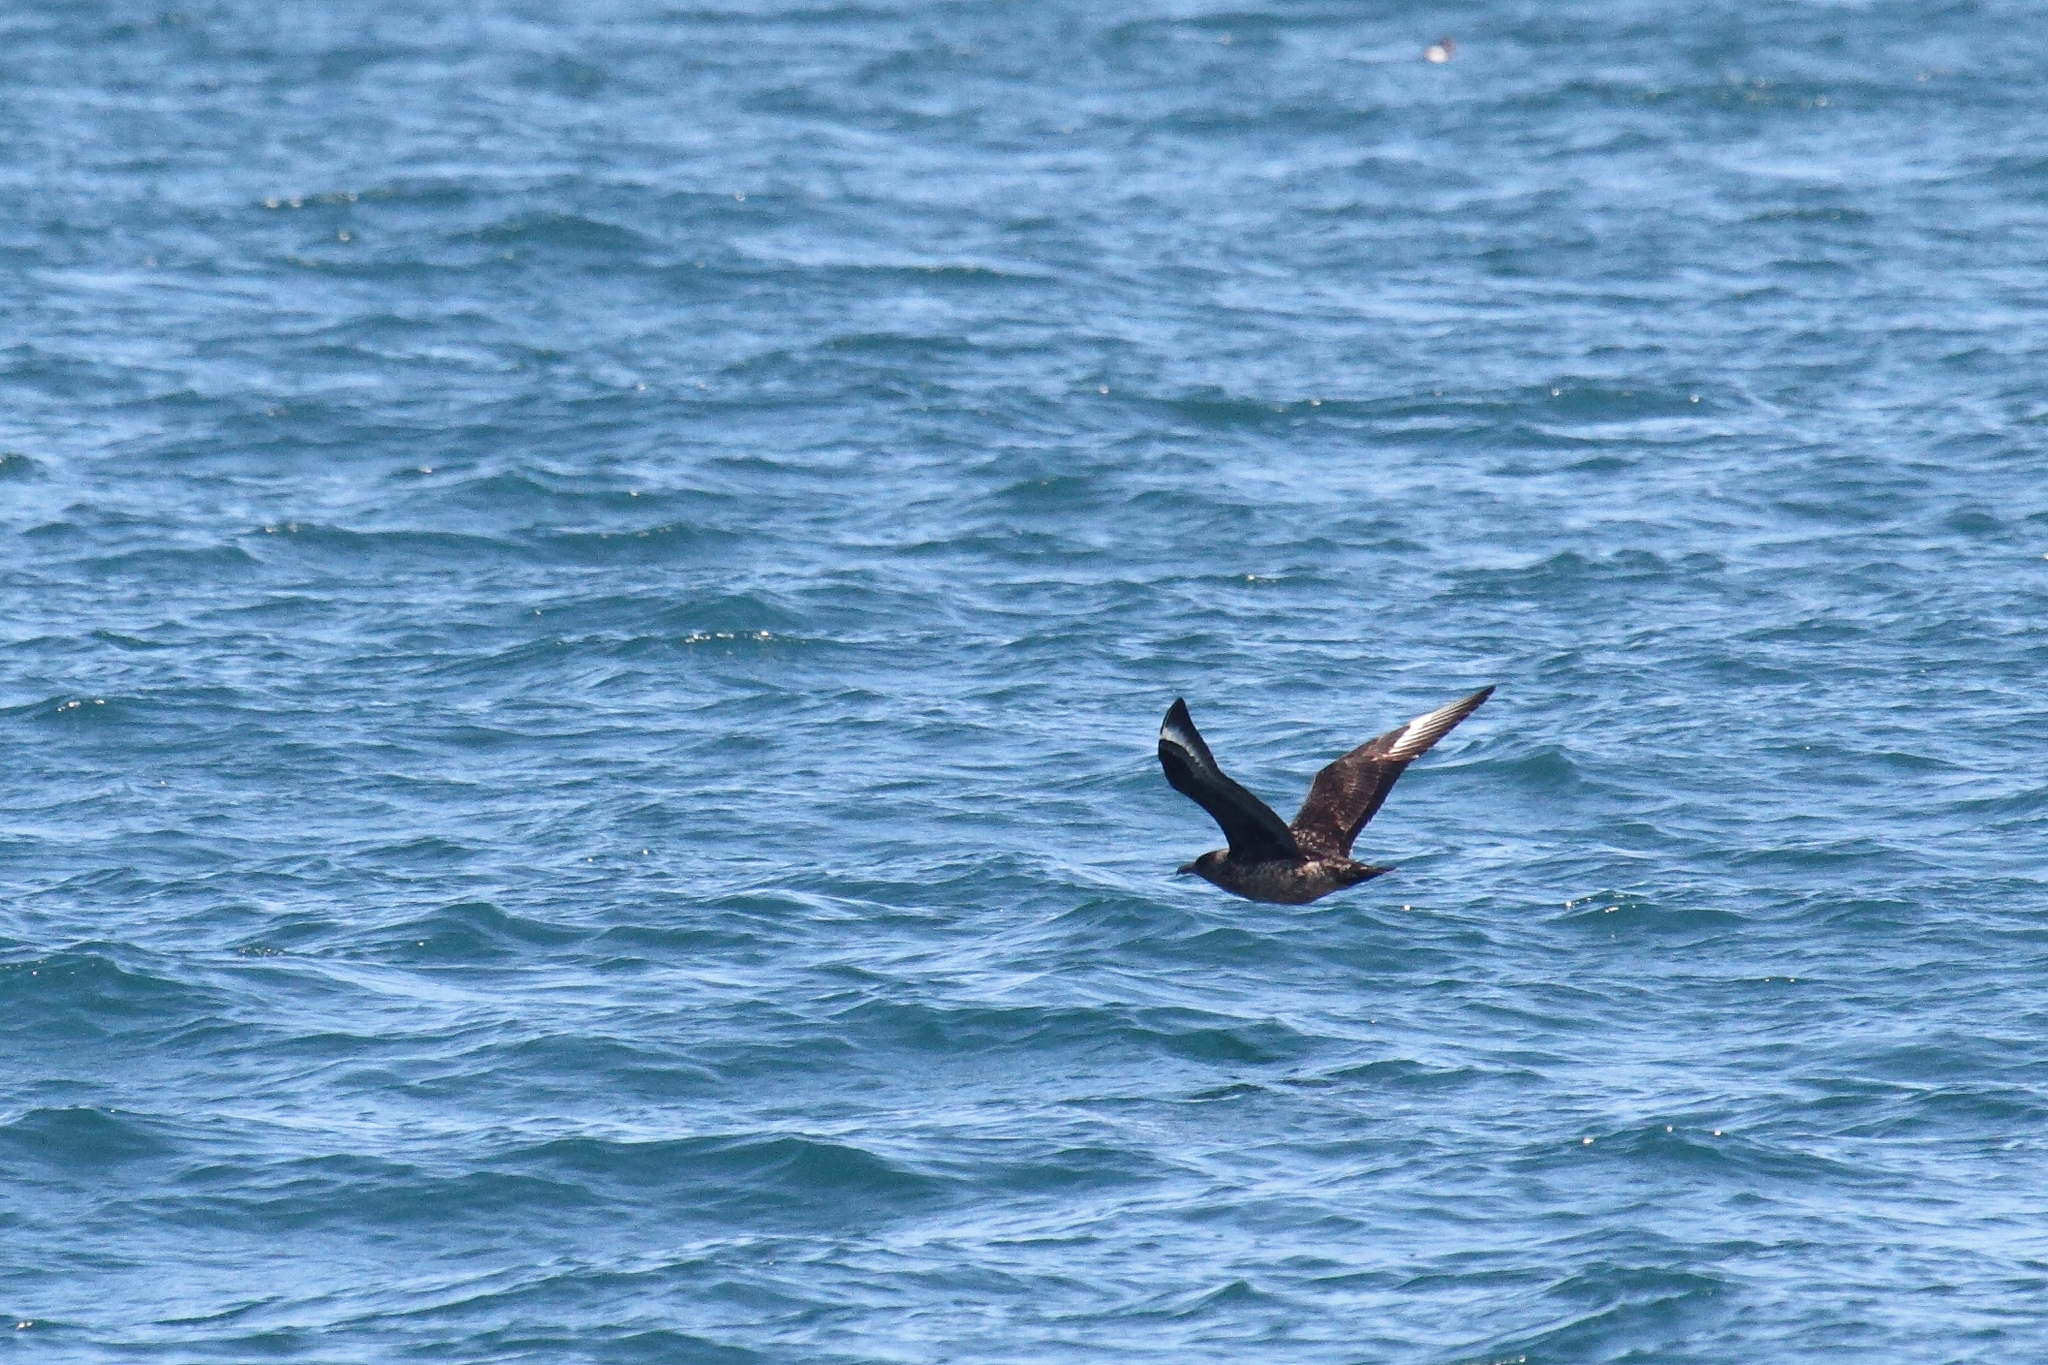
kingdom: Animalia
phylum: Chordata
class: Aves
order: Charadriiformes
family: Stercorariidae
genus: Stercorarius
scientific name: Stercorarius skua
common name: Great skua
